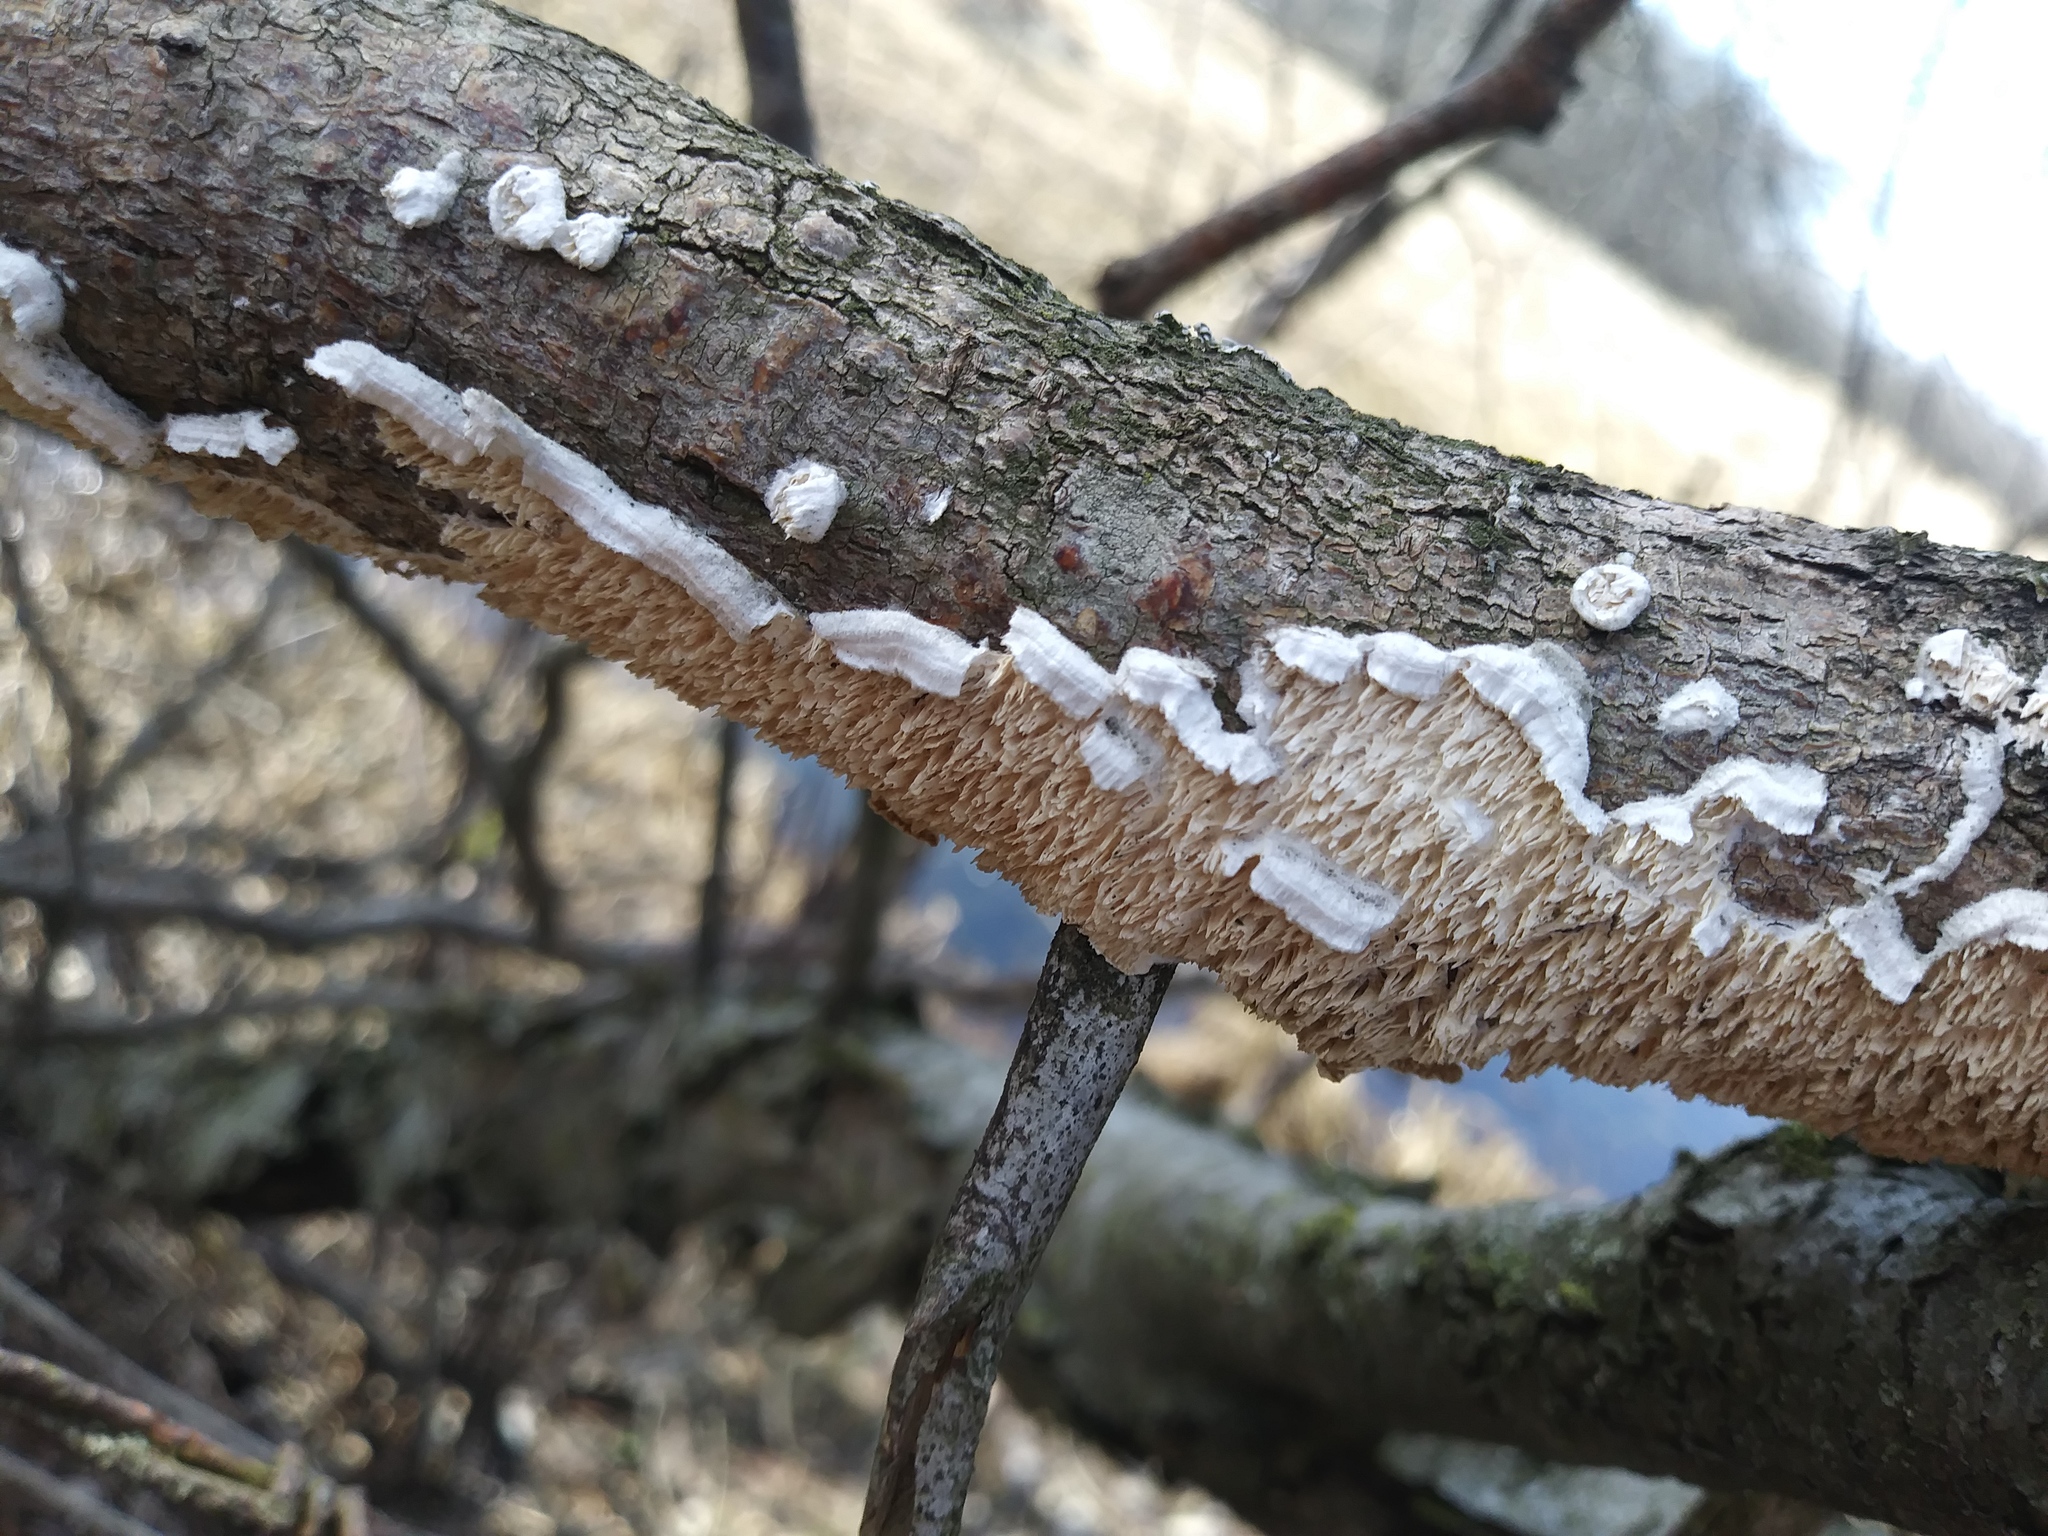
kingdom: Fungi
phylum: Basidiomycota
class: Agaricomycetes
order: Polyporales
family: Irpicaceae
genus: Irpex
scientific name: Irpex lacteus
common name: Milk-white toothed polypore
